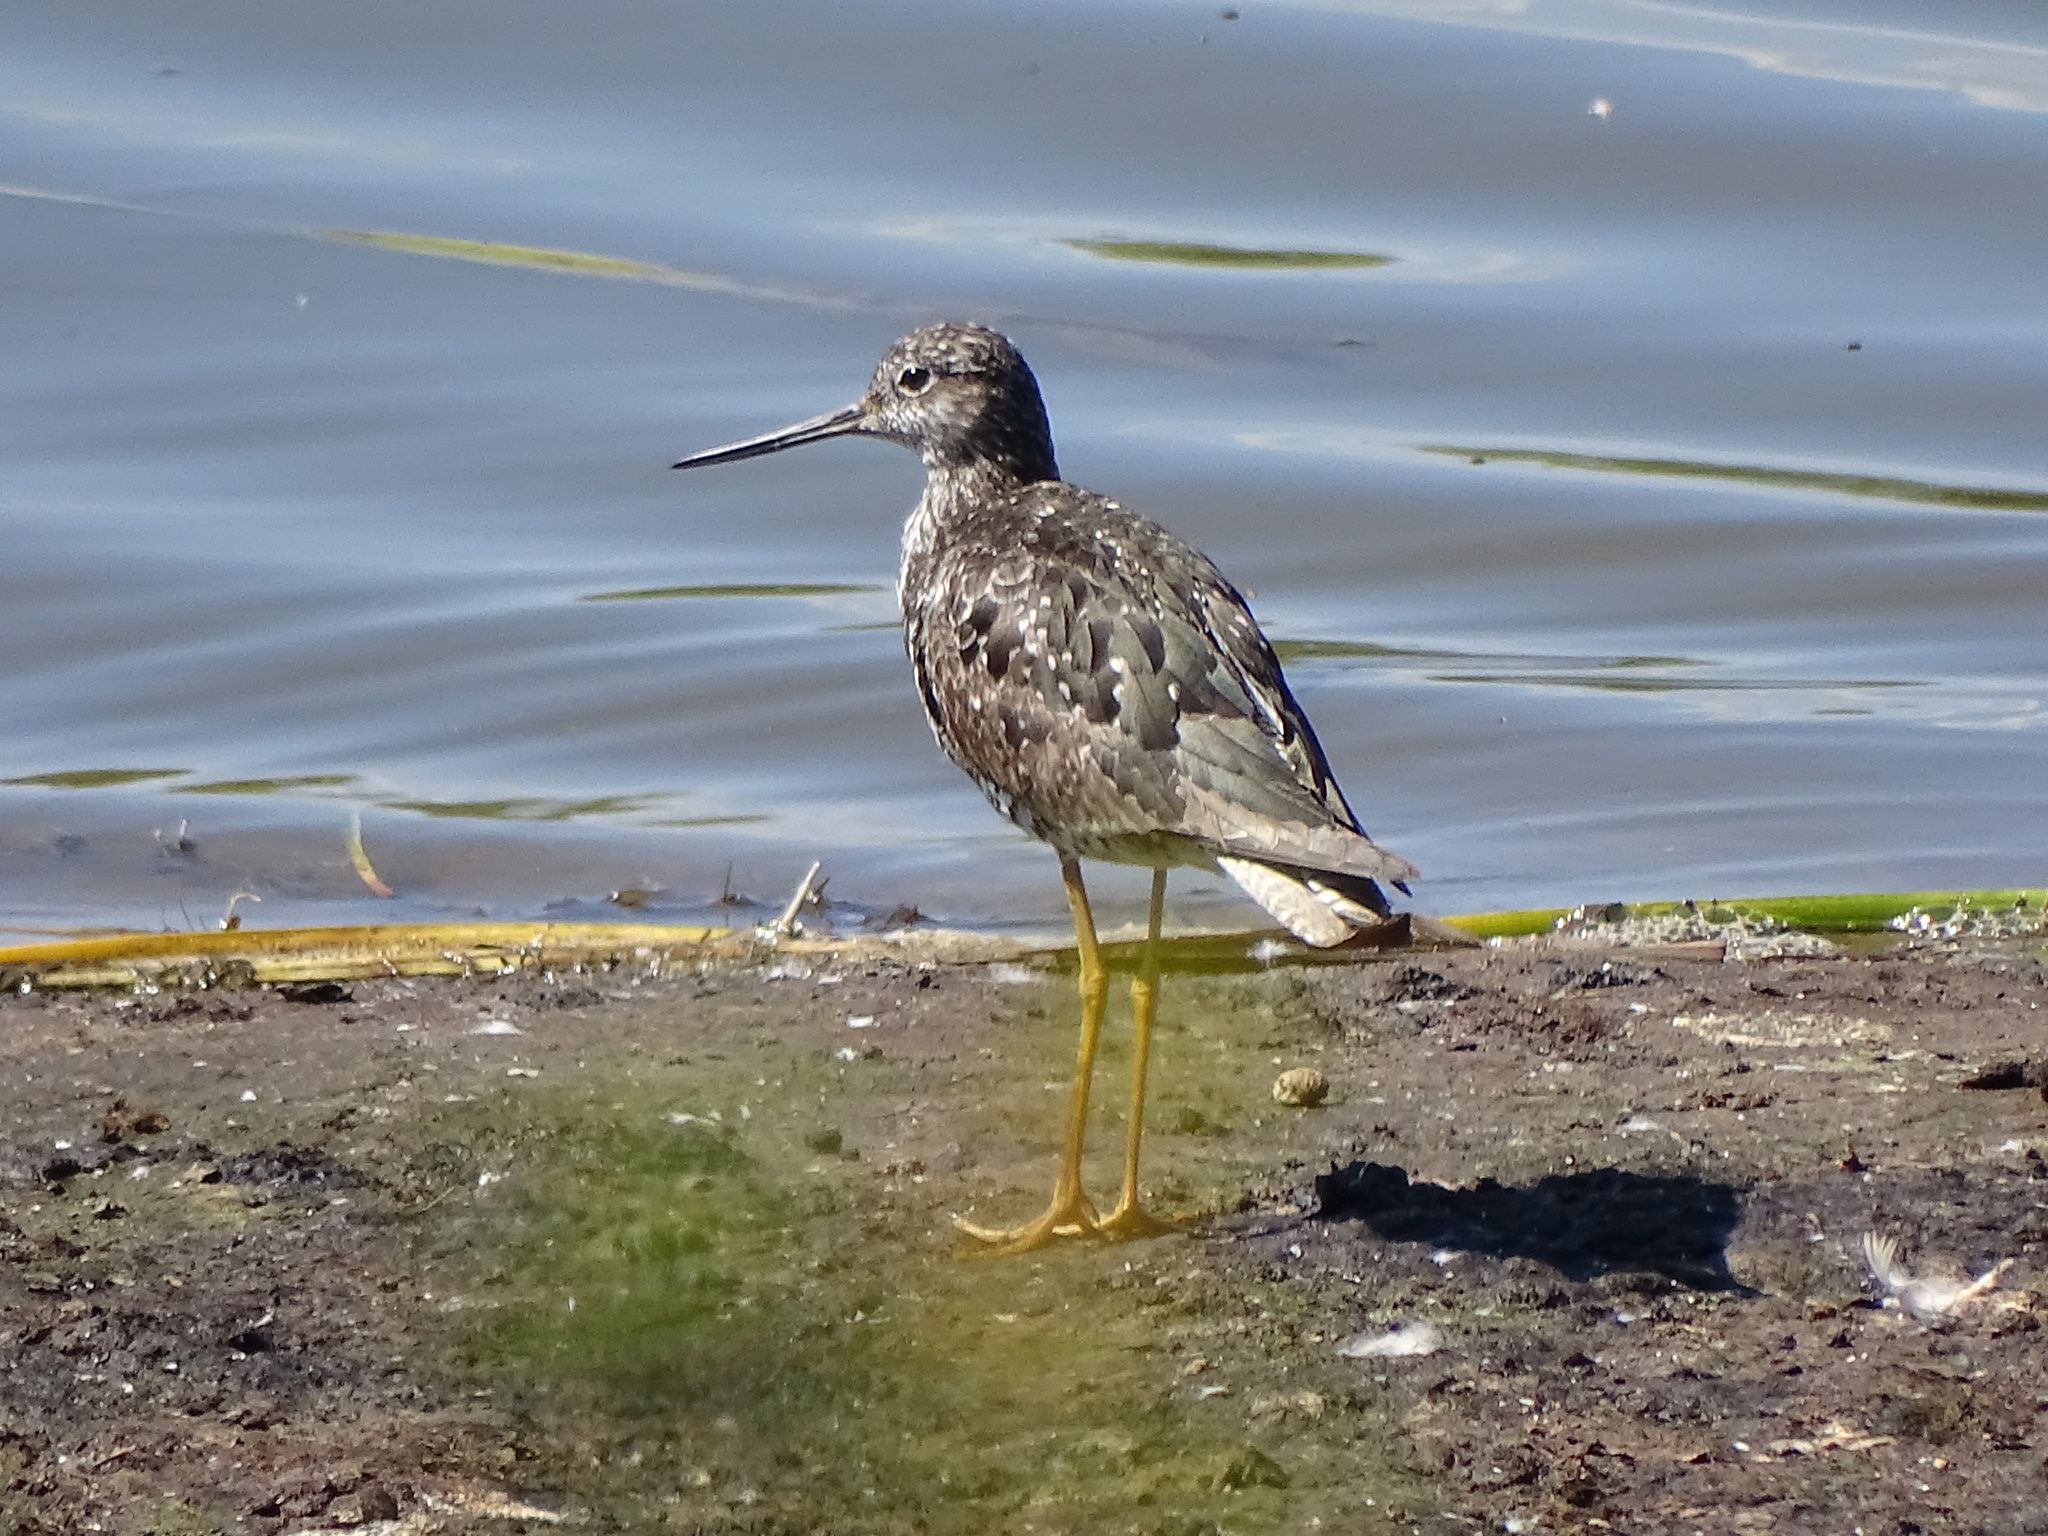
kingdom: Animalia
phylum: Chordata
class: Aves
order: Charadriiformes
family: Scolopacidae
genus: Tringa
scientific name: Tringa melanoleuca
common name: Greater yellowlegs
